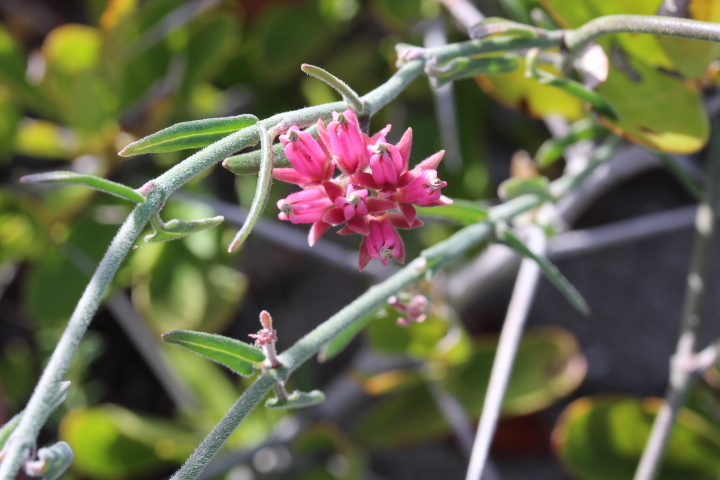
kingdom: Plantae
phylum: Tracheophyta
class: Magnoliopsida
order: Gentianales
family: Apocynaceae
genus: Microloma
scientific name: Microloma sagittatum
